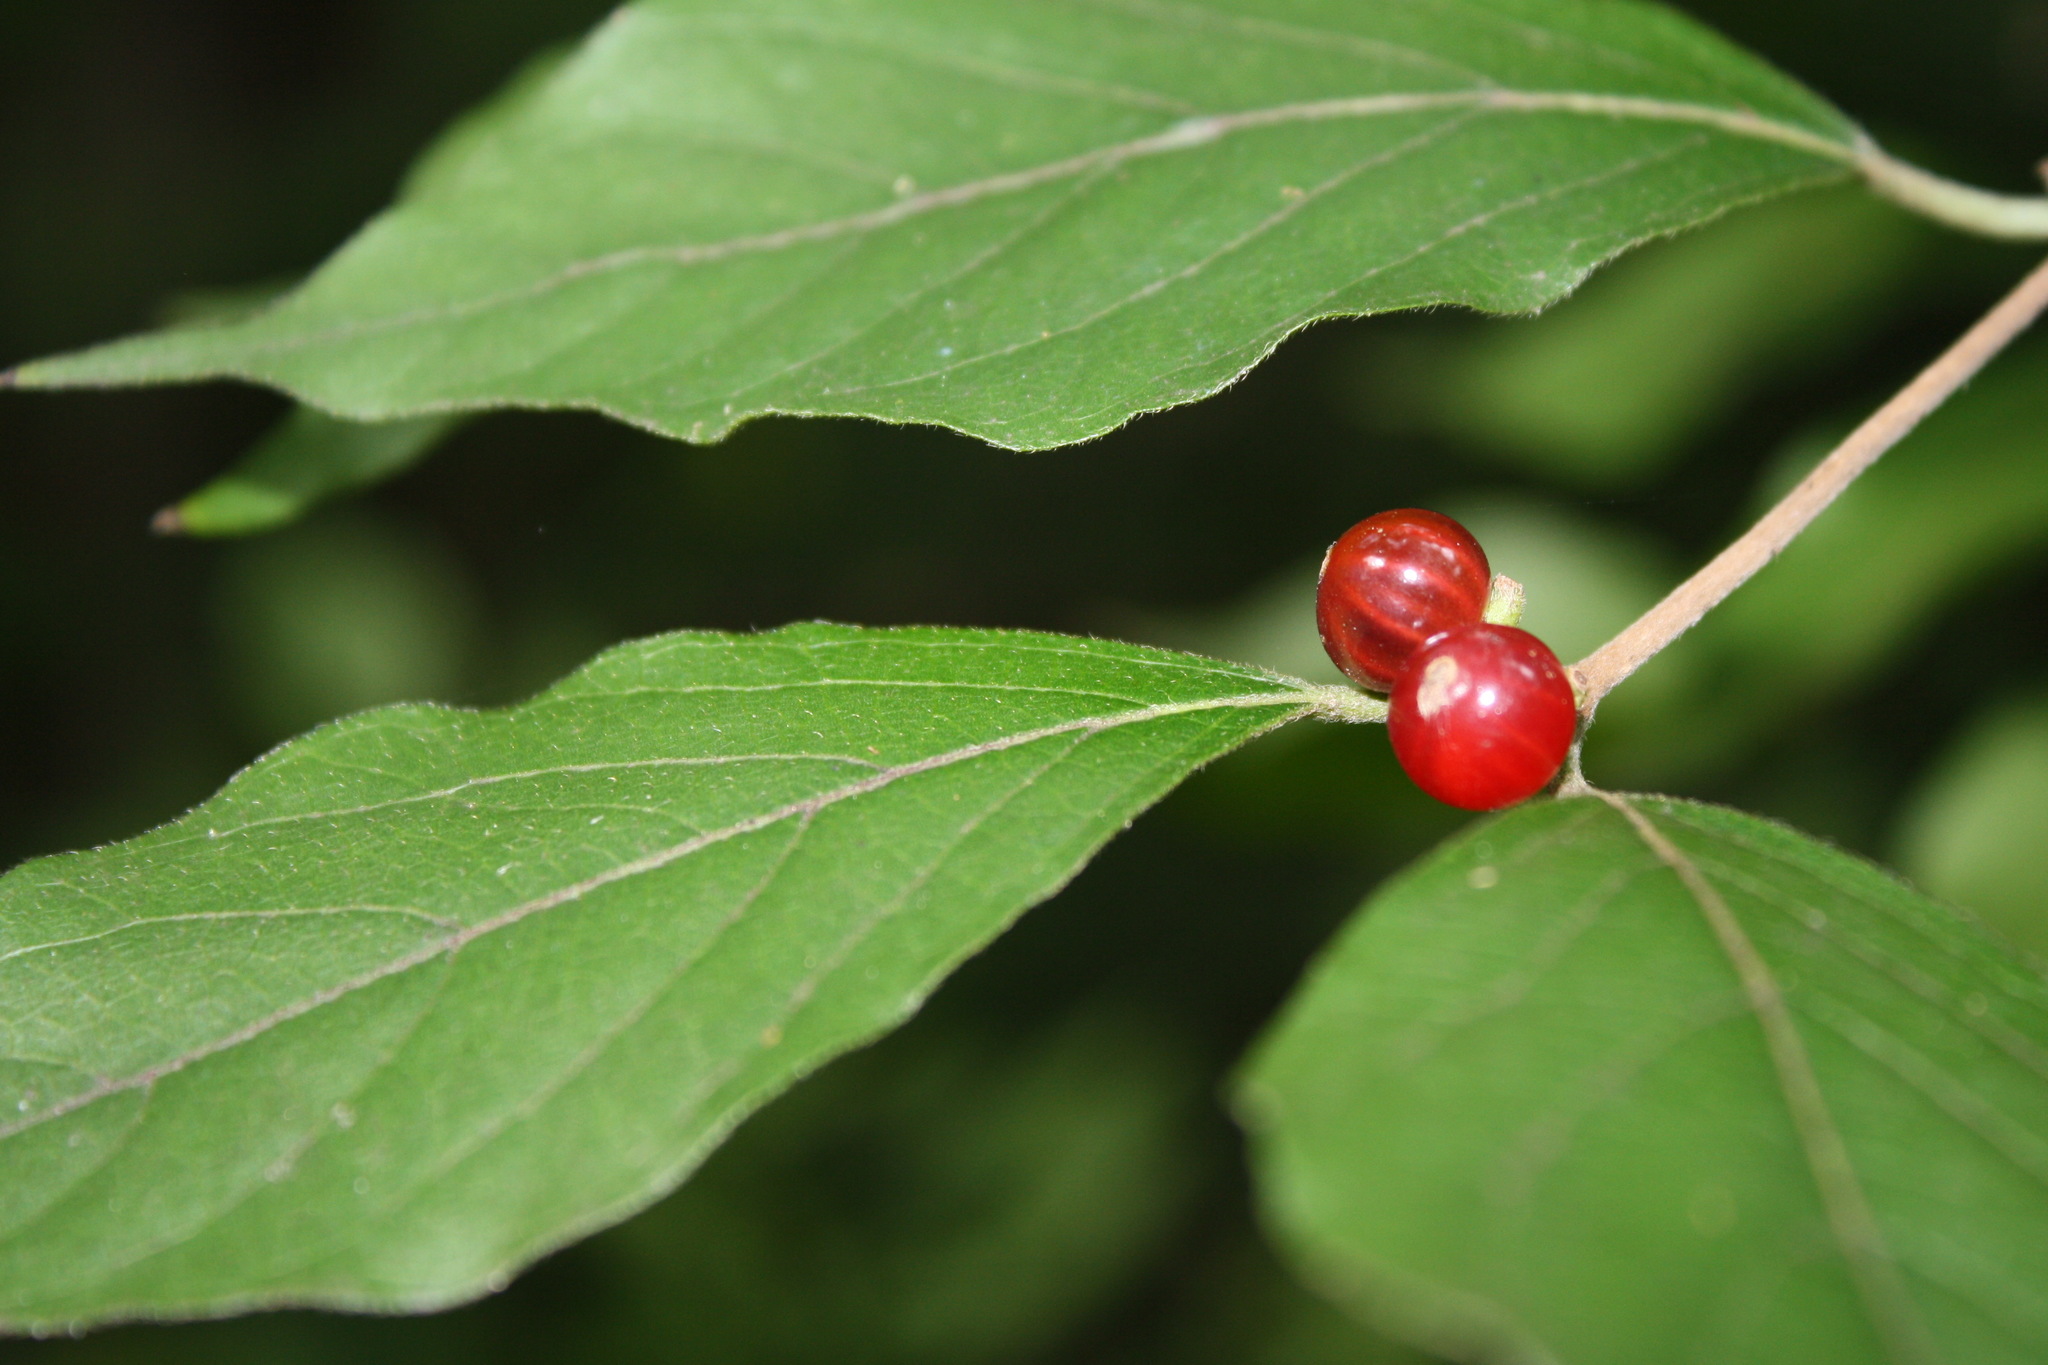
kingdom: Plantae
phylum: Tracheophyta
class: Magnoliopsida
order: Dipsacales
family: Caprifoliaceae
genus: Lonicera
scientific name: Lonicera maackii
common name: Amur honeysuckle
